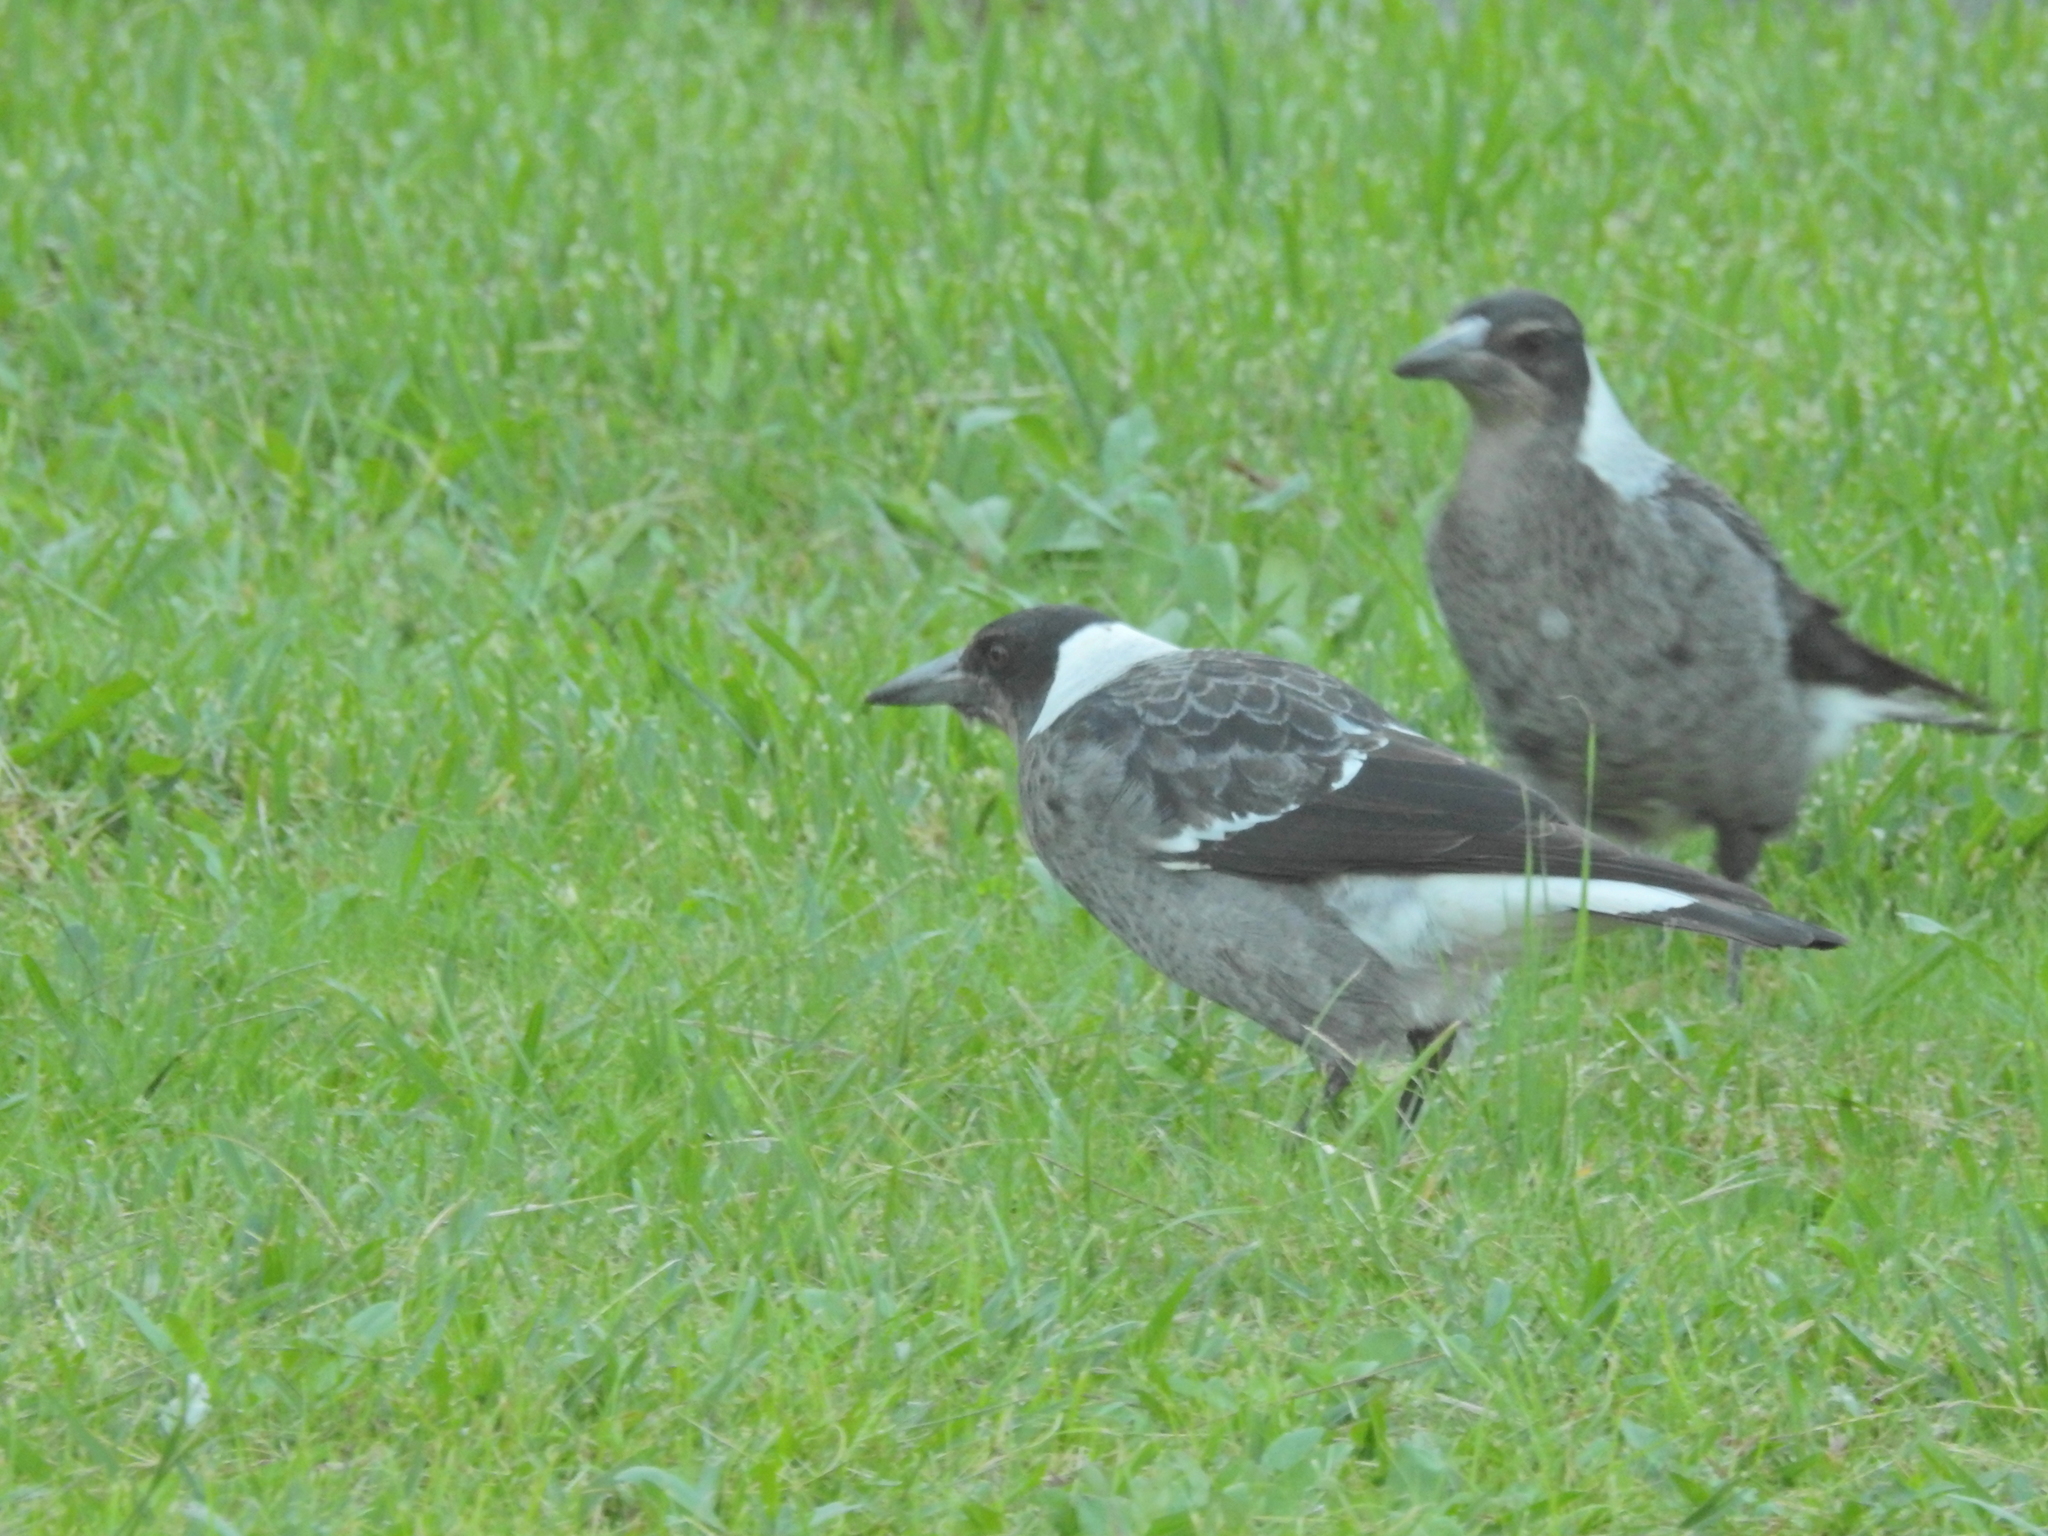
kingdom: Animalia
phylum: Chordata
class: Aves
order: Passeriformes
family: Cracticidae
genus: Gymnorhina
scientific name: Gymnorhina tibicen
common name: Australian magpie
